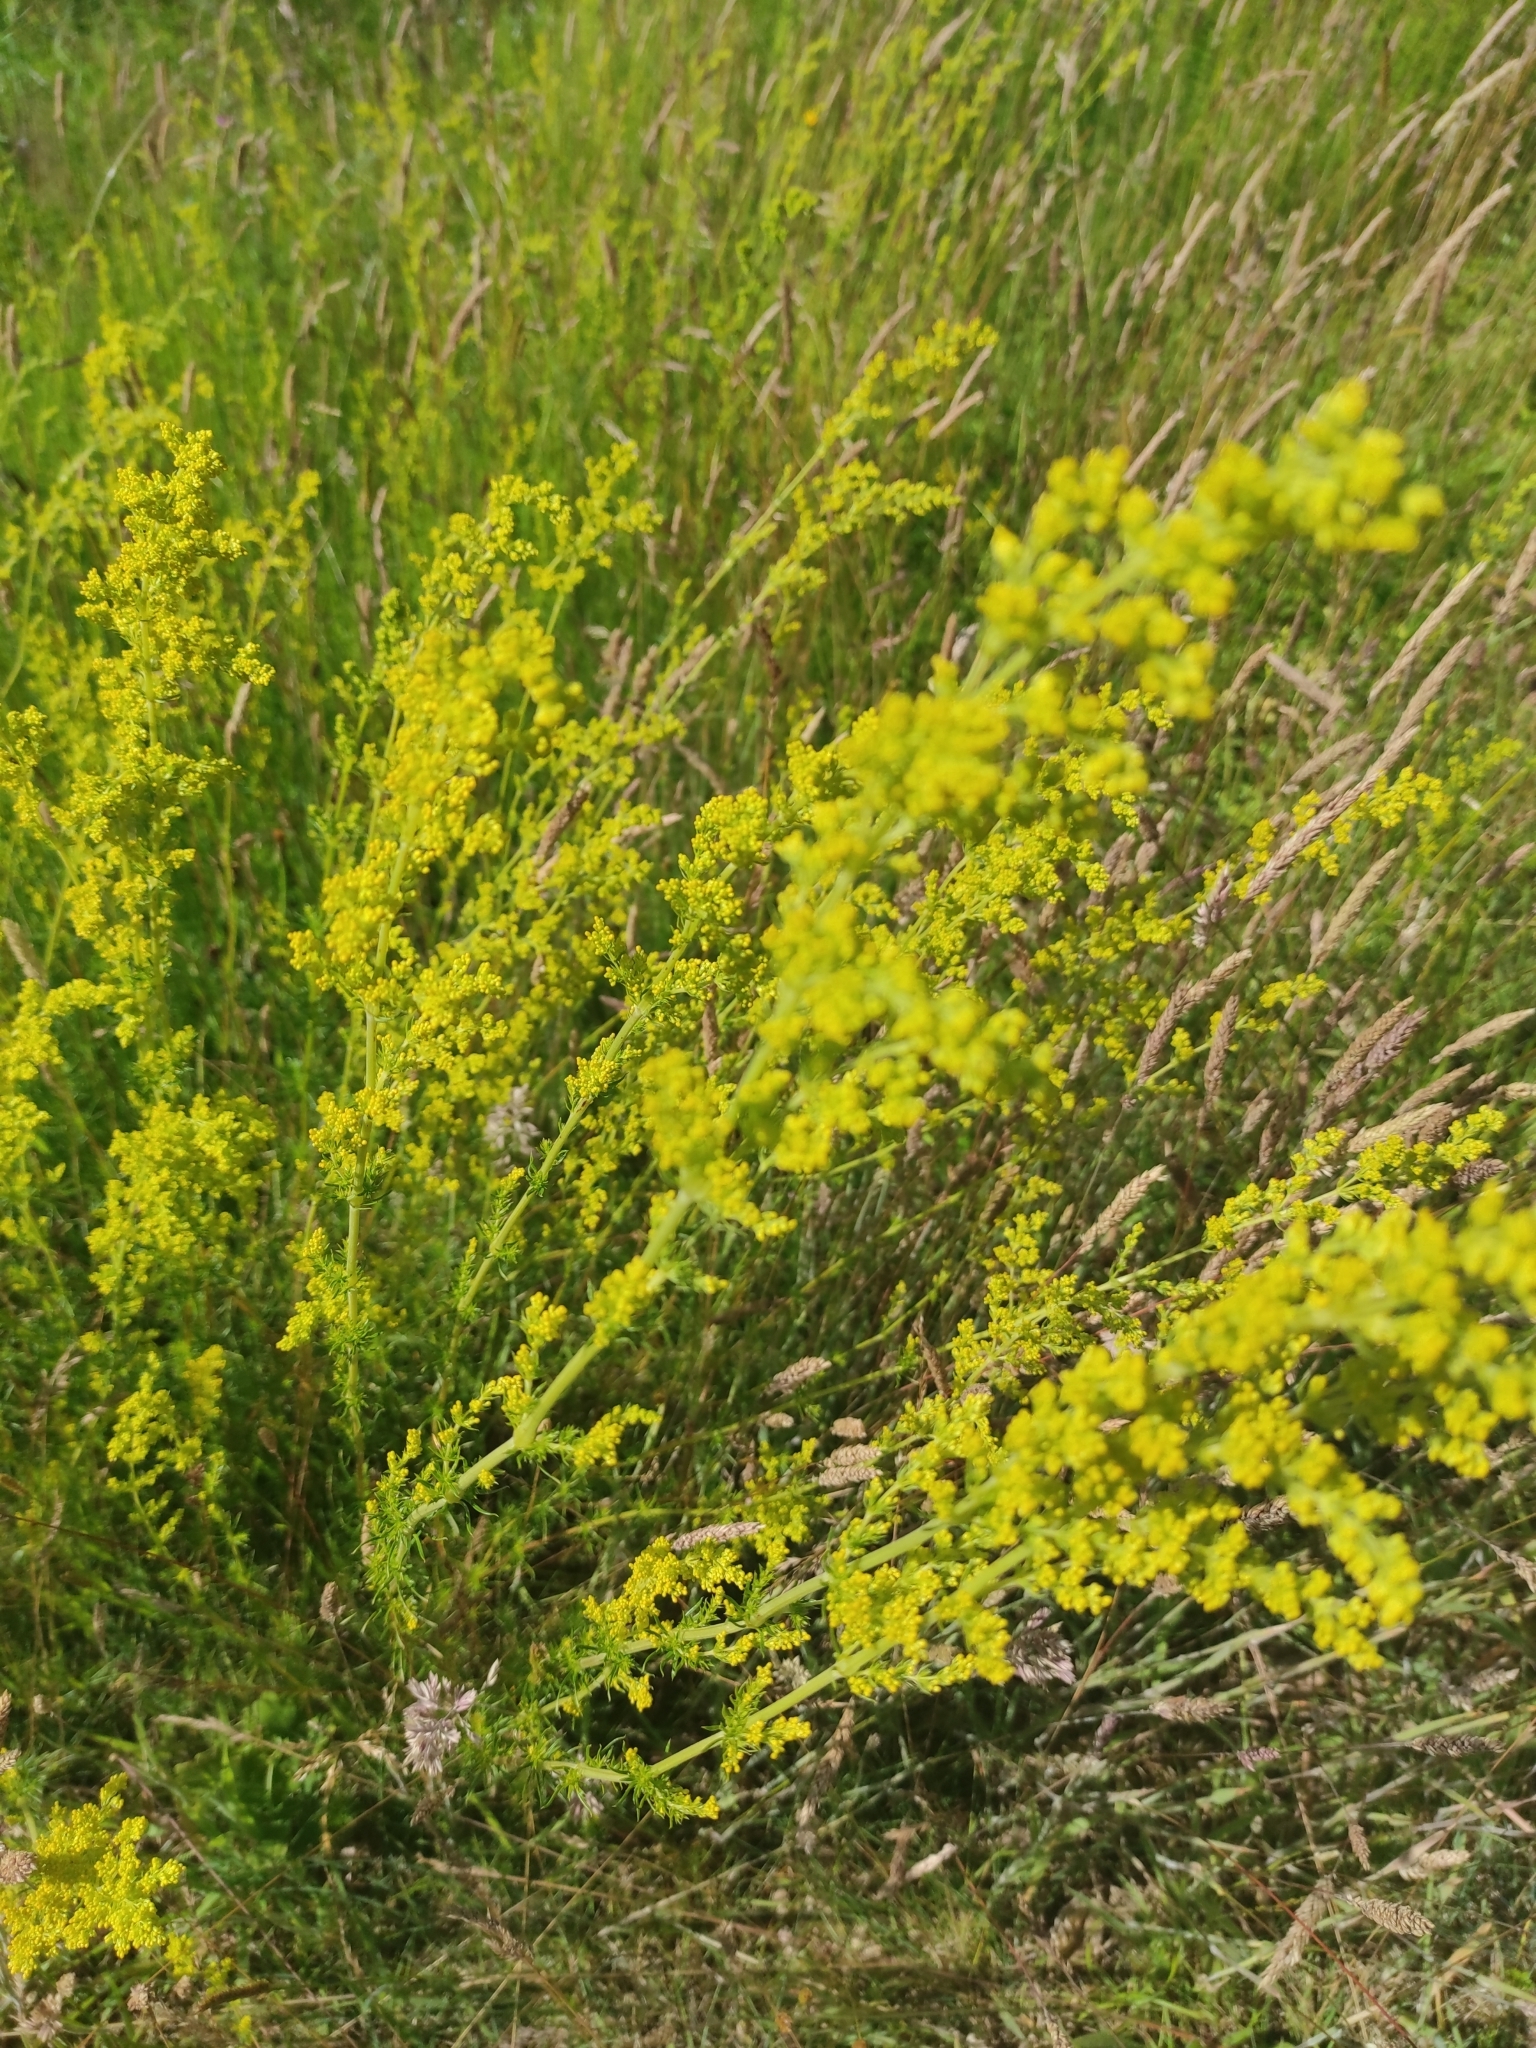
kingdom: Plantae
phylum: Tracheophyta
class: Magnoliopsida
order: Gentianales
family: Rubiaceae
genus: Galium
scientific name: Galium verum
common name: Lady's bedstraw
